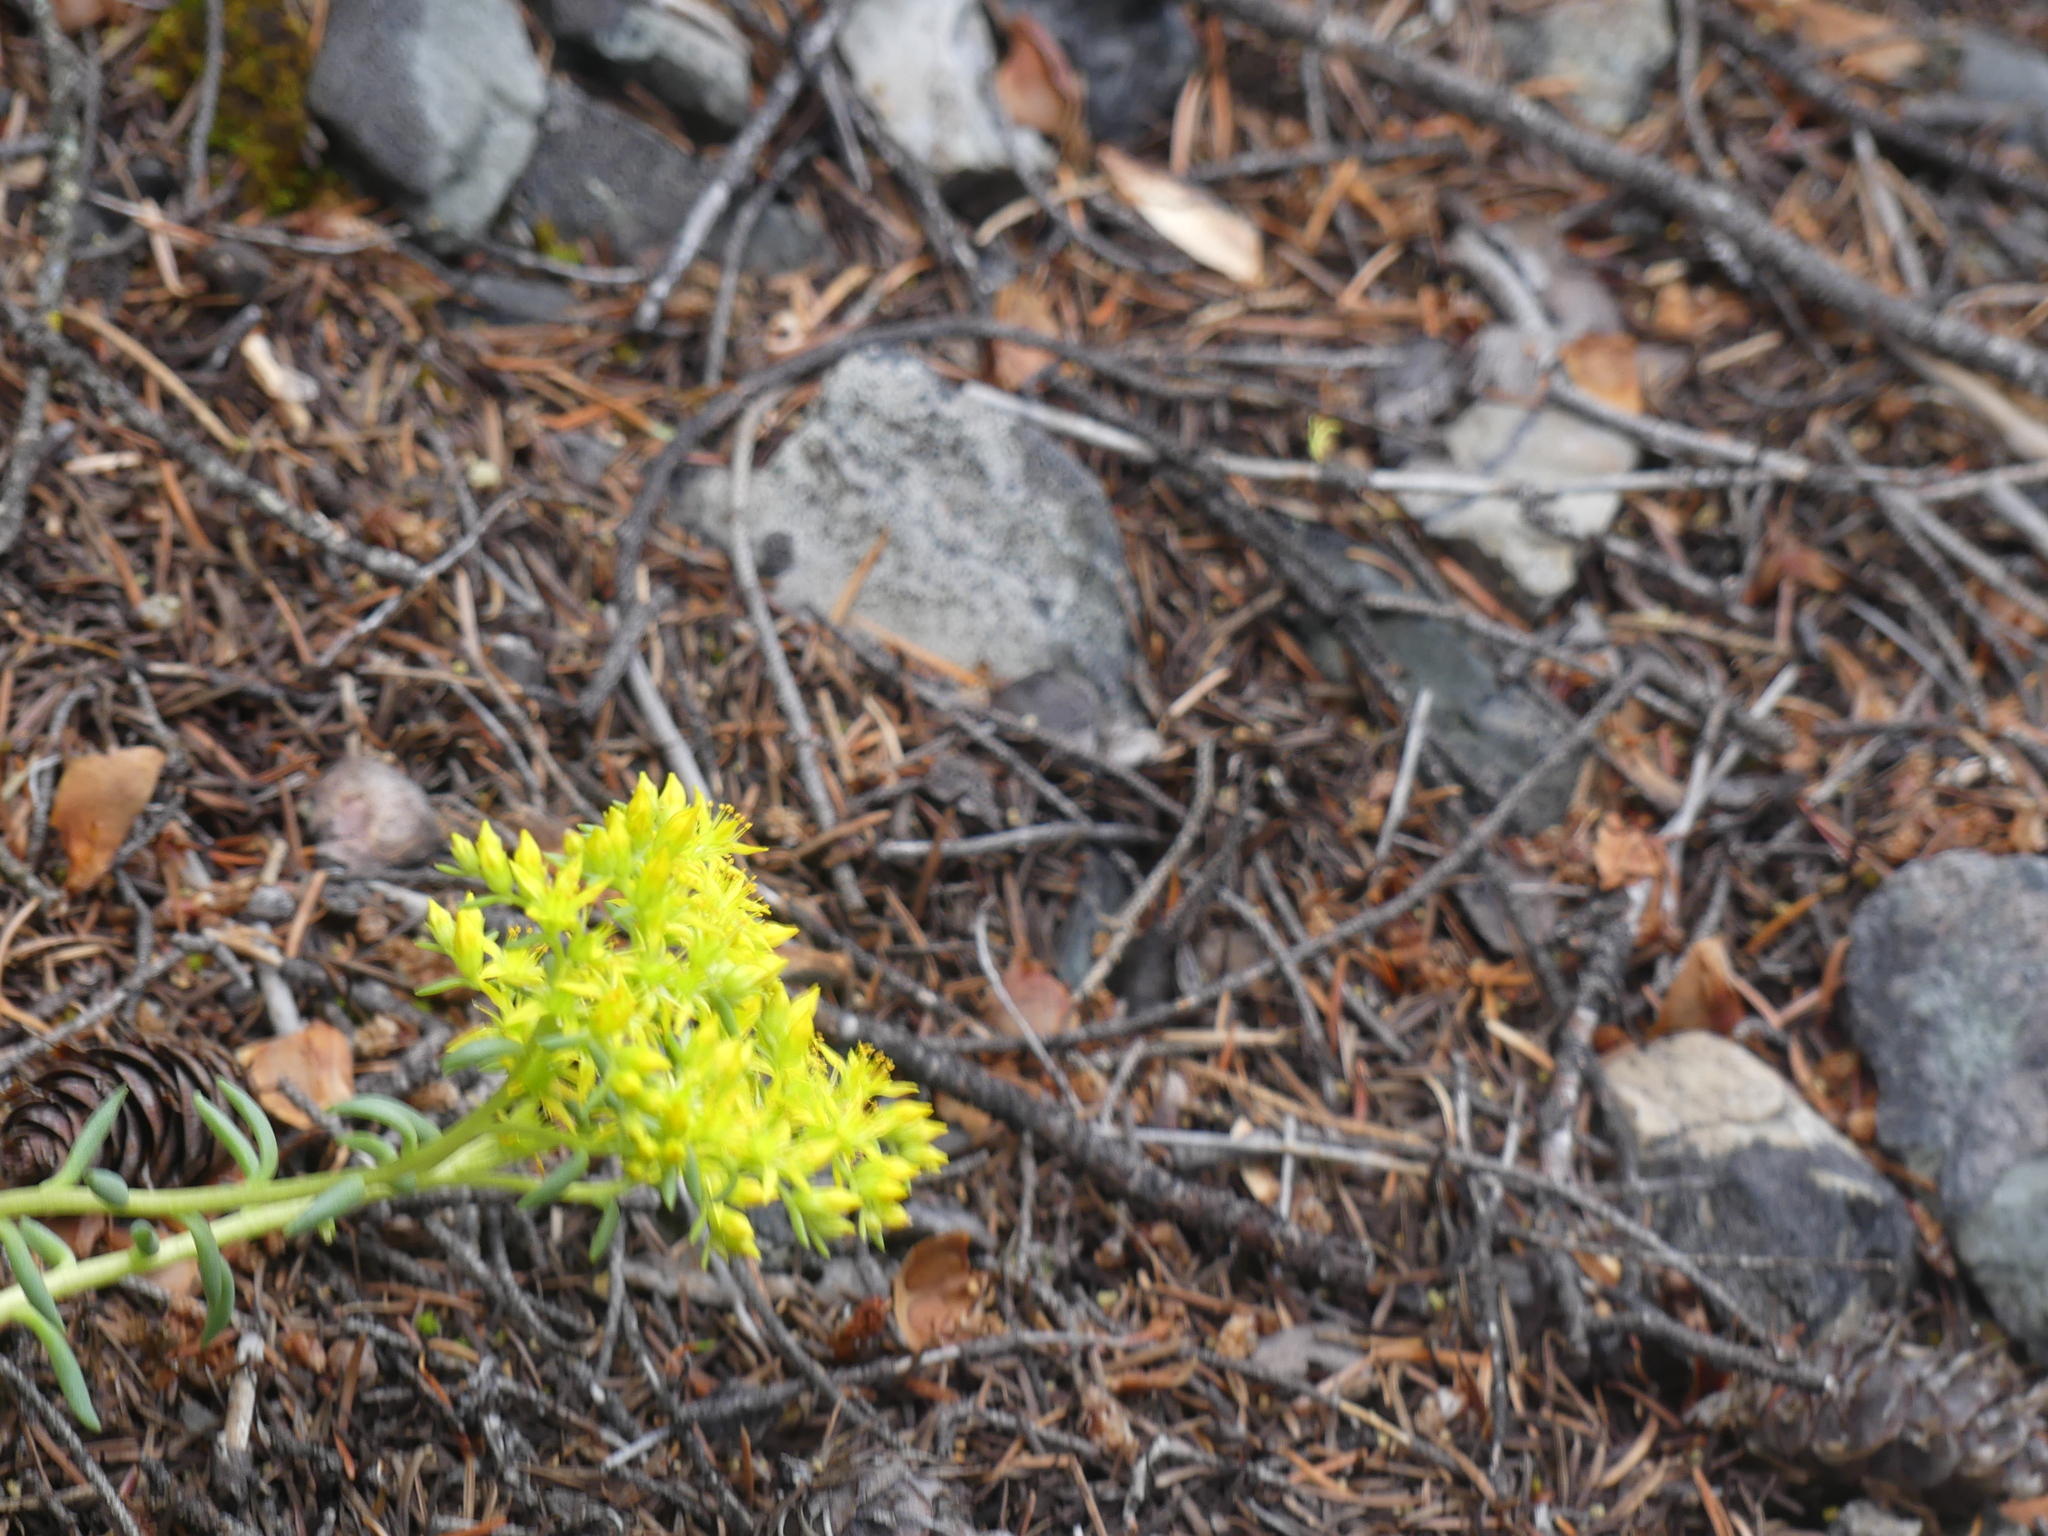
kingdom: Plantae
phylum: Tracheophyta
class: Magnoliopsida
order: Saxifragales
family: Crassulaceae
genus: Sedum
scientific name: Sedum lanceolatum
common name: Common stonecrop
